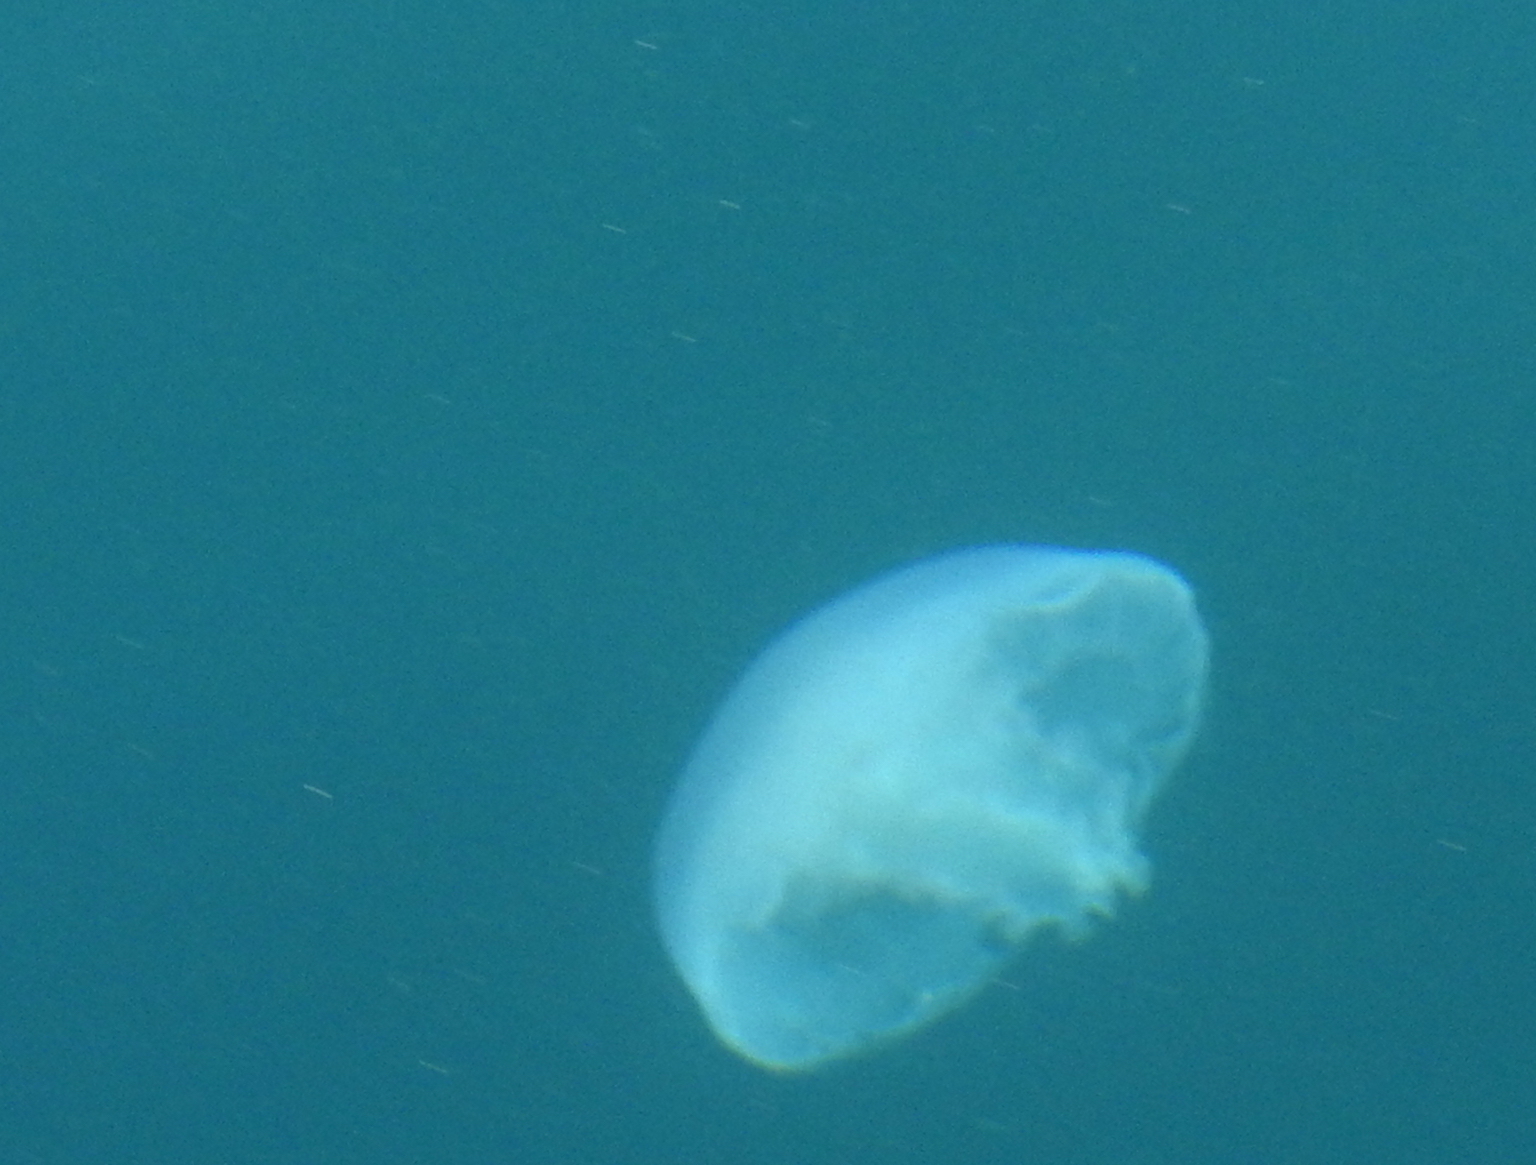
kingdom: Animalia
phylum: Cnidaria
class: Scyphozoa
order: Semaeostomeae
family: Ulmaridae
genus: Aurelia
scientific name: Aurelia labiata
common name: Pacific moon jelly
